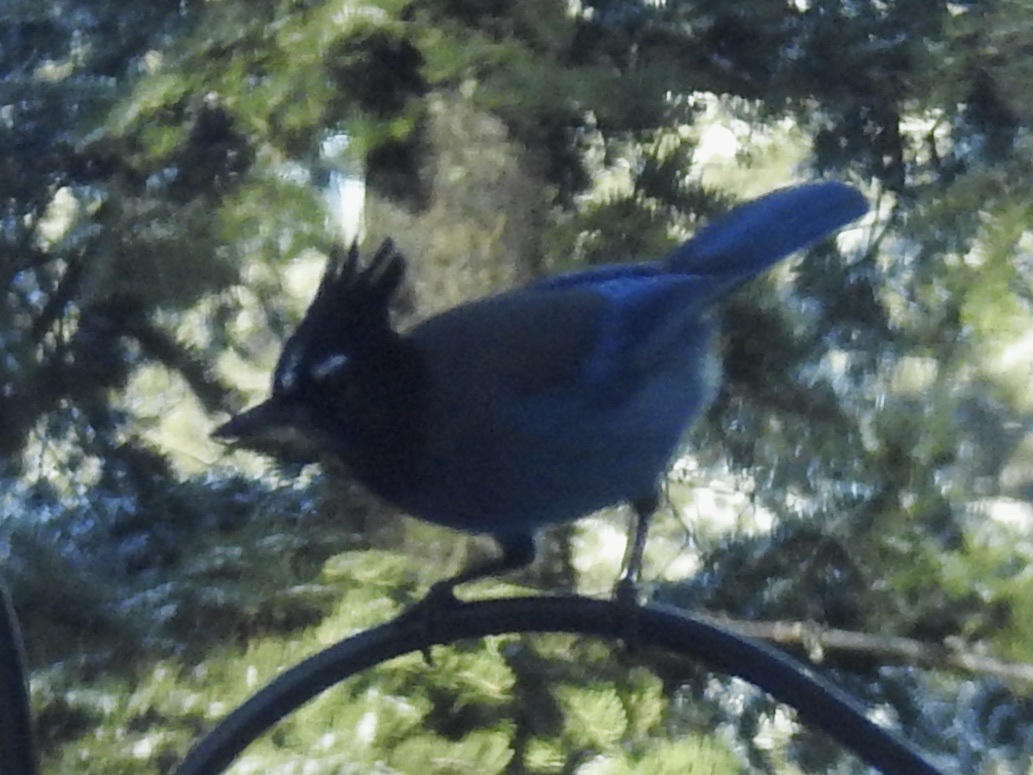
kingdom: Animalia
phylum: Chordata
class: Aves
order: Passeriformes
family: Corvidae
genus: Cyanocitta
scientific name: Cyanocitta stelleri
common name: Steller's jay
